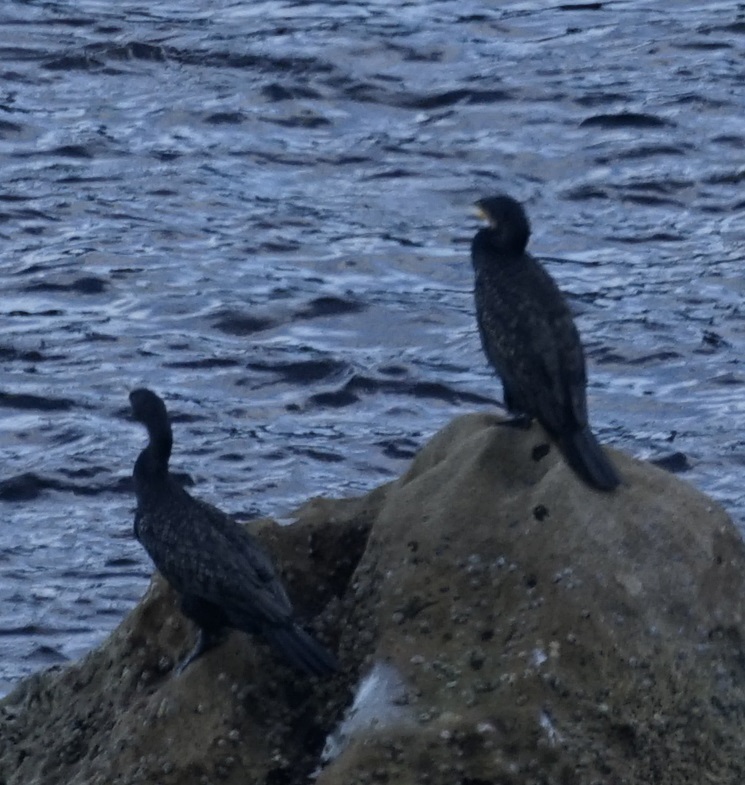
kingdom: Animalia
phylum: Chordata
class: Aves
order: Suliformes
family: Phalacrocoracidae
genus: Phalacrocorax
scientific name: Phalacrocorax carbo
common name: Great cormorant
